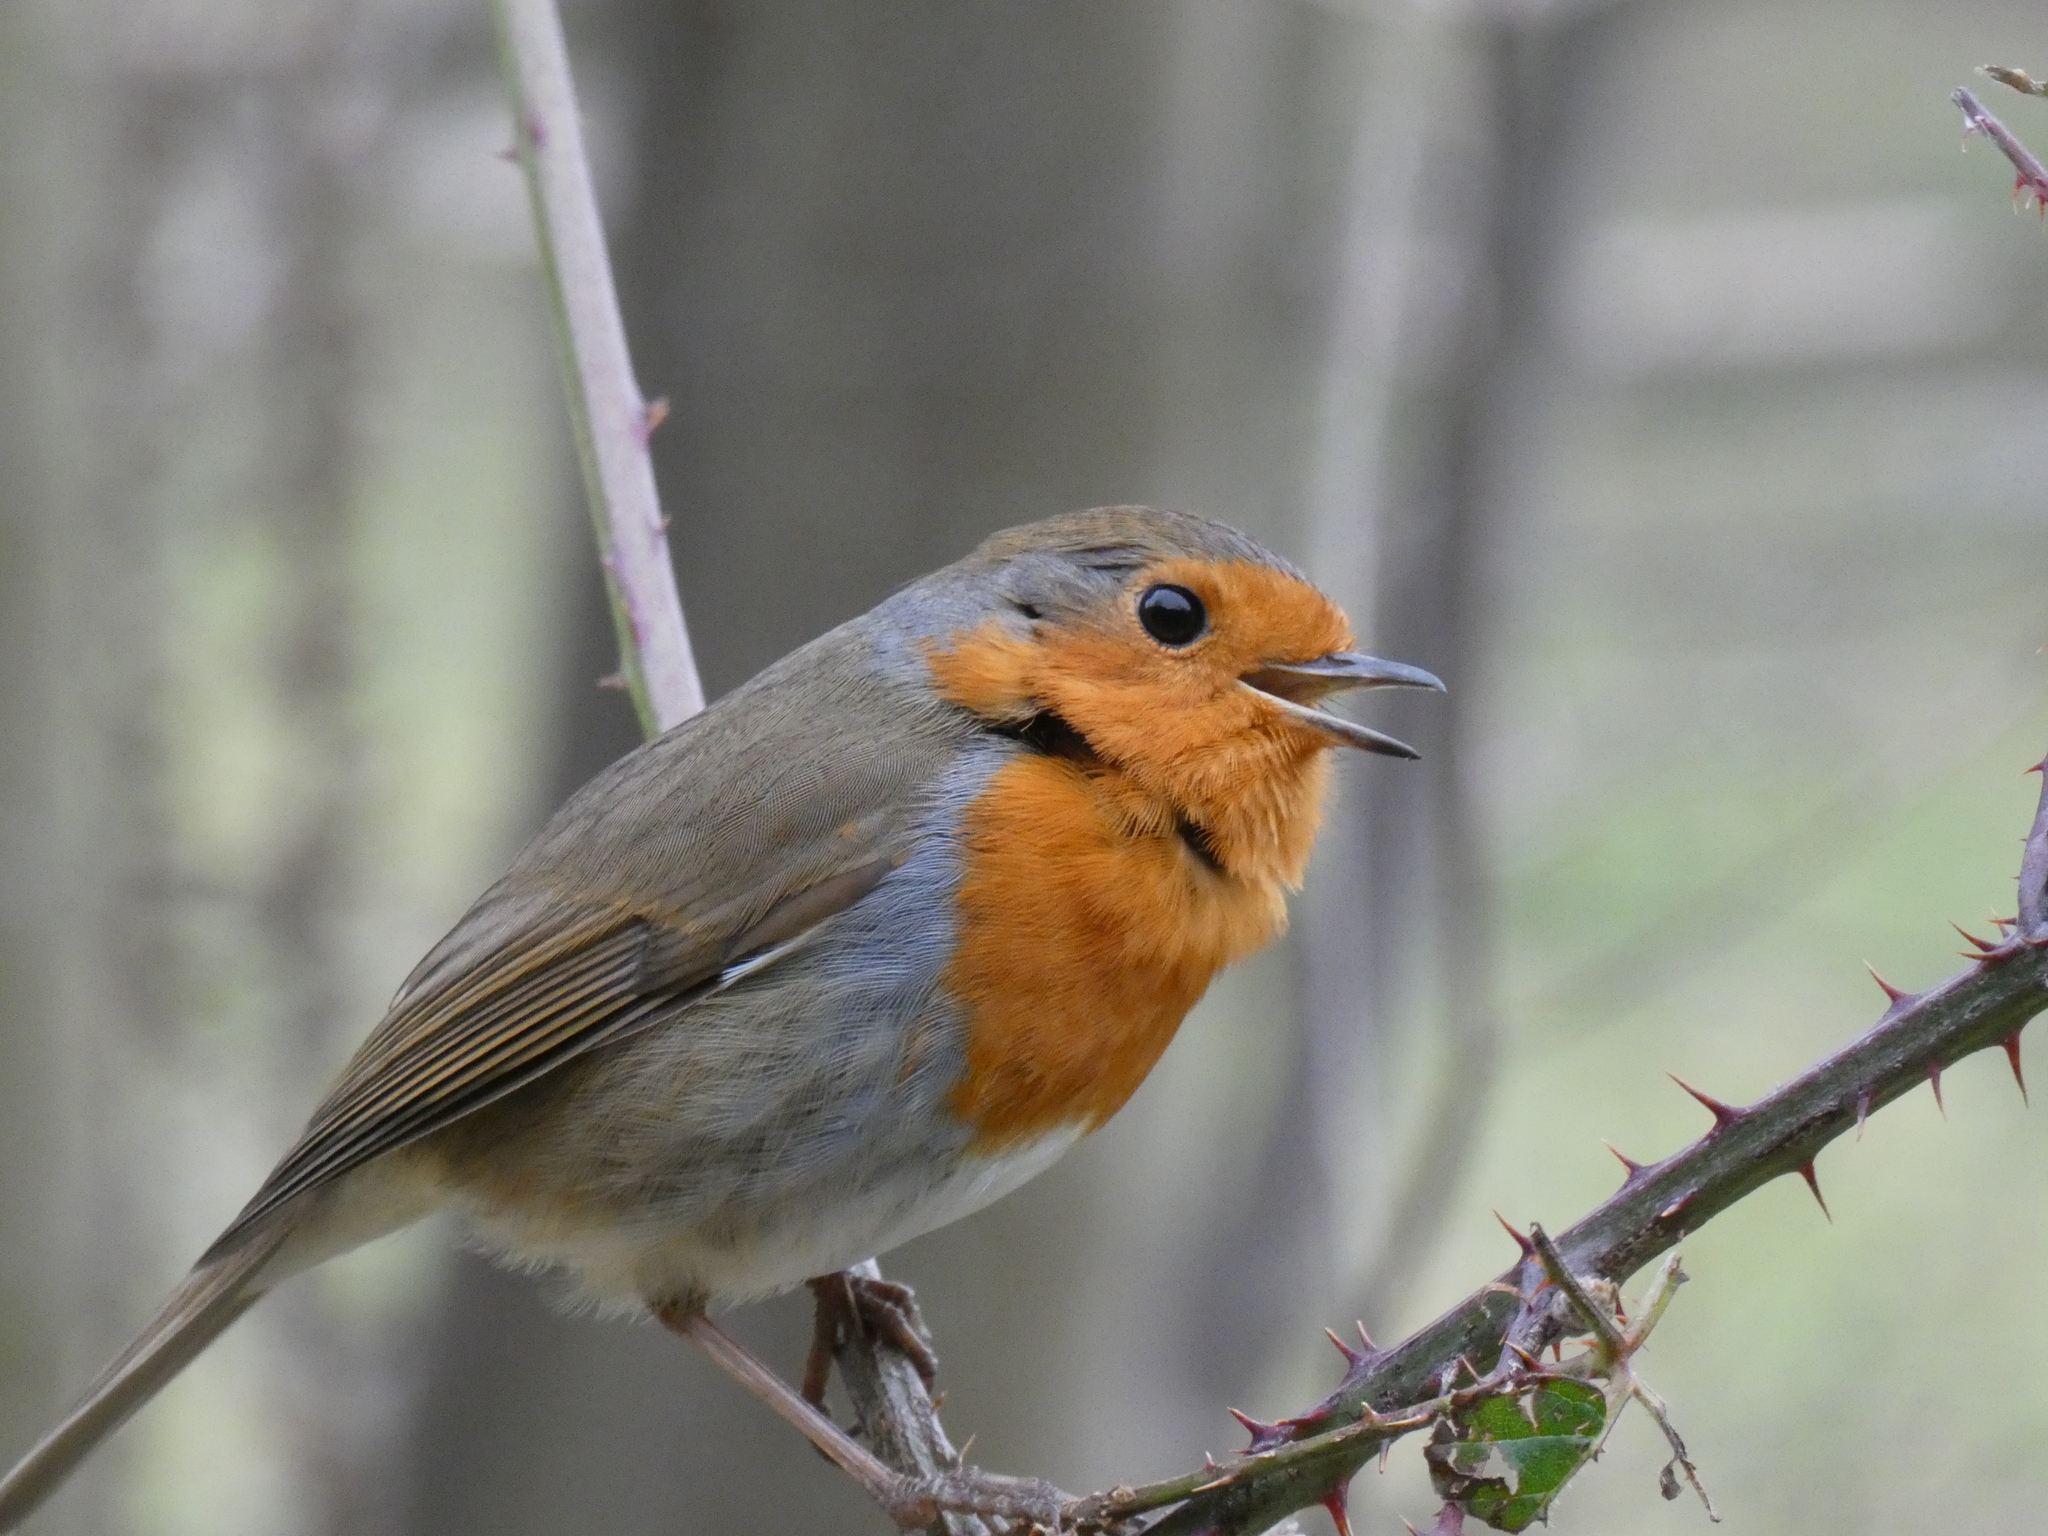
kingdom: Animalia
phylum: Chordata
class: Aves
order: Passeriformes
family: Muscicapidae
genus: Erithacus
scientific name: Erithacus rubecula
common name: European robin
